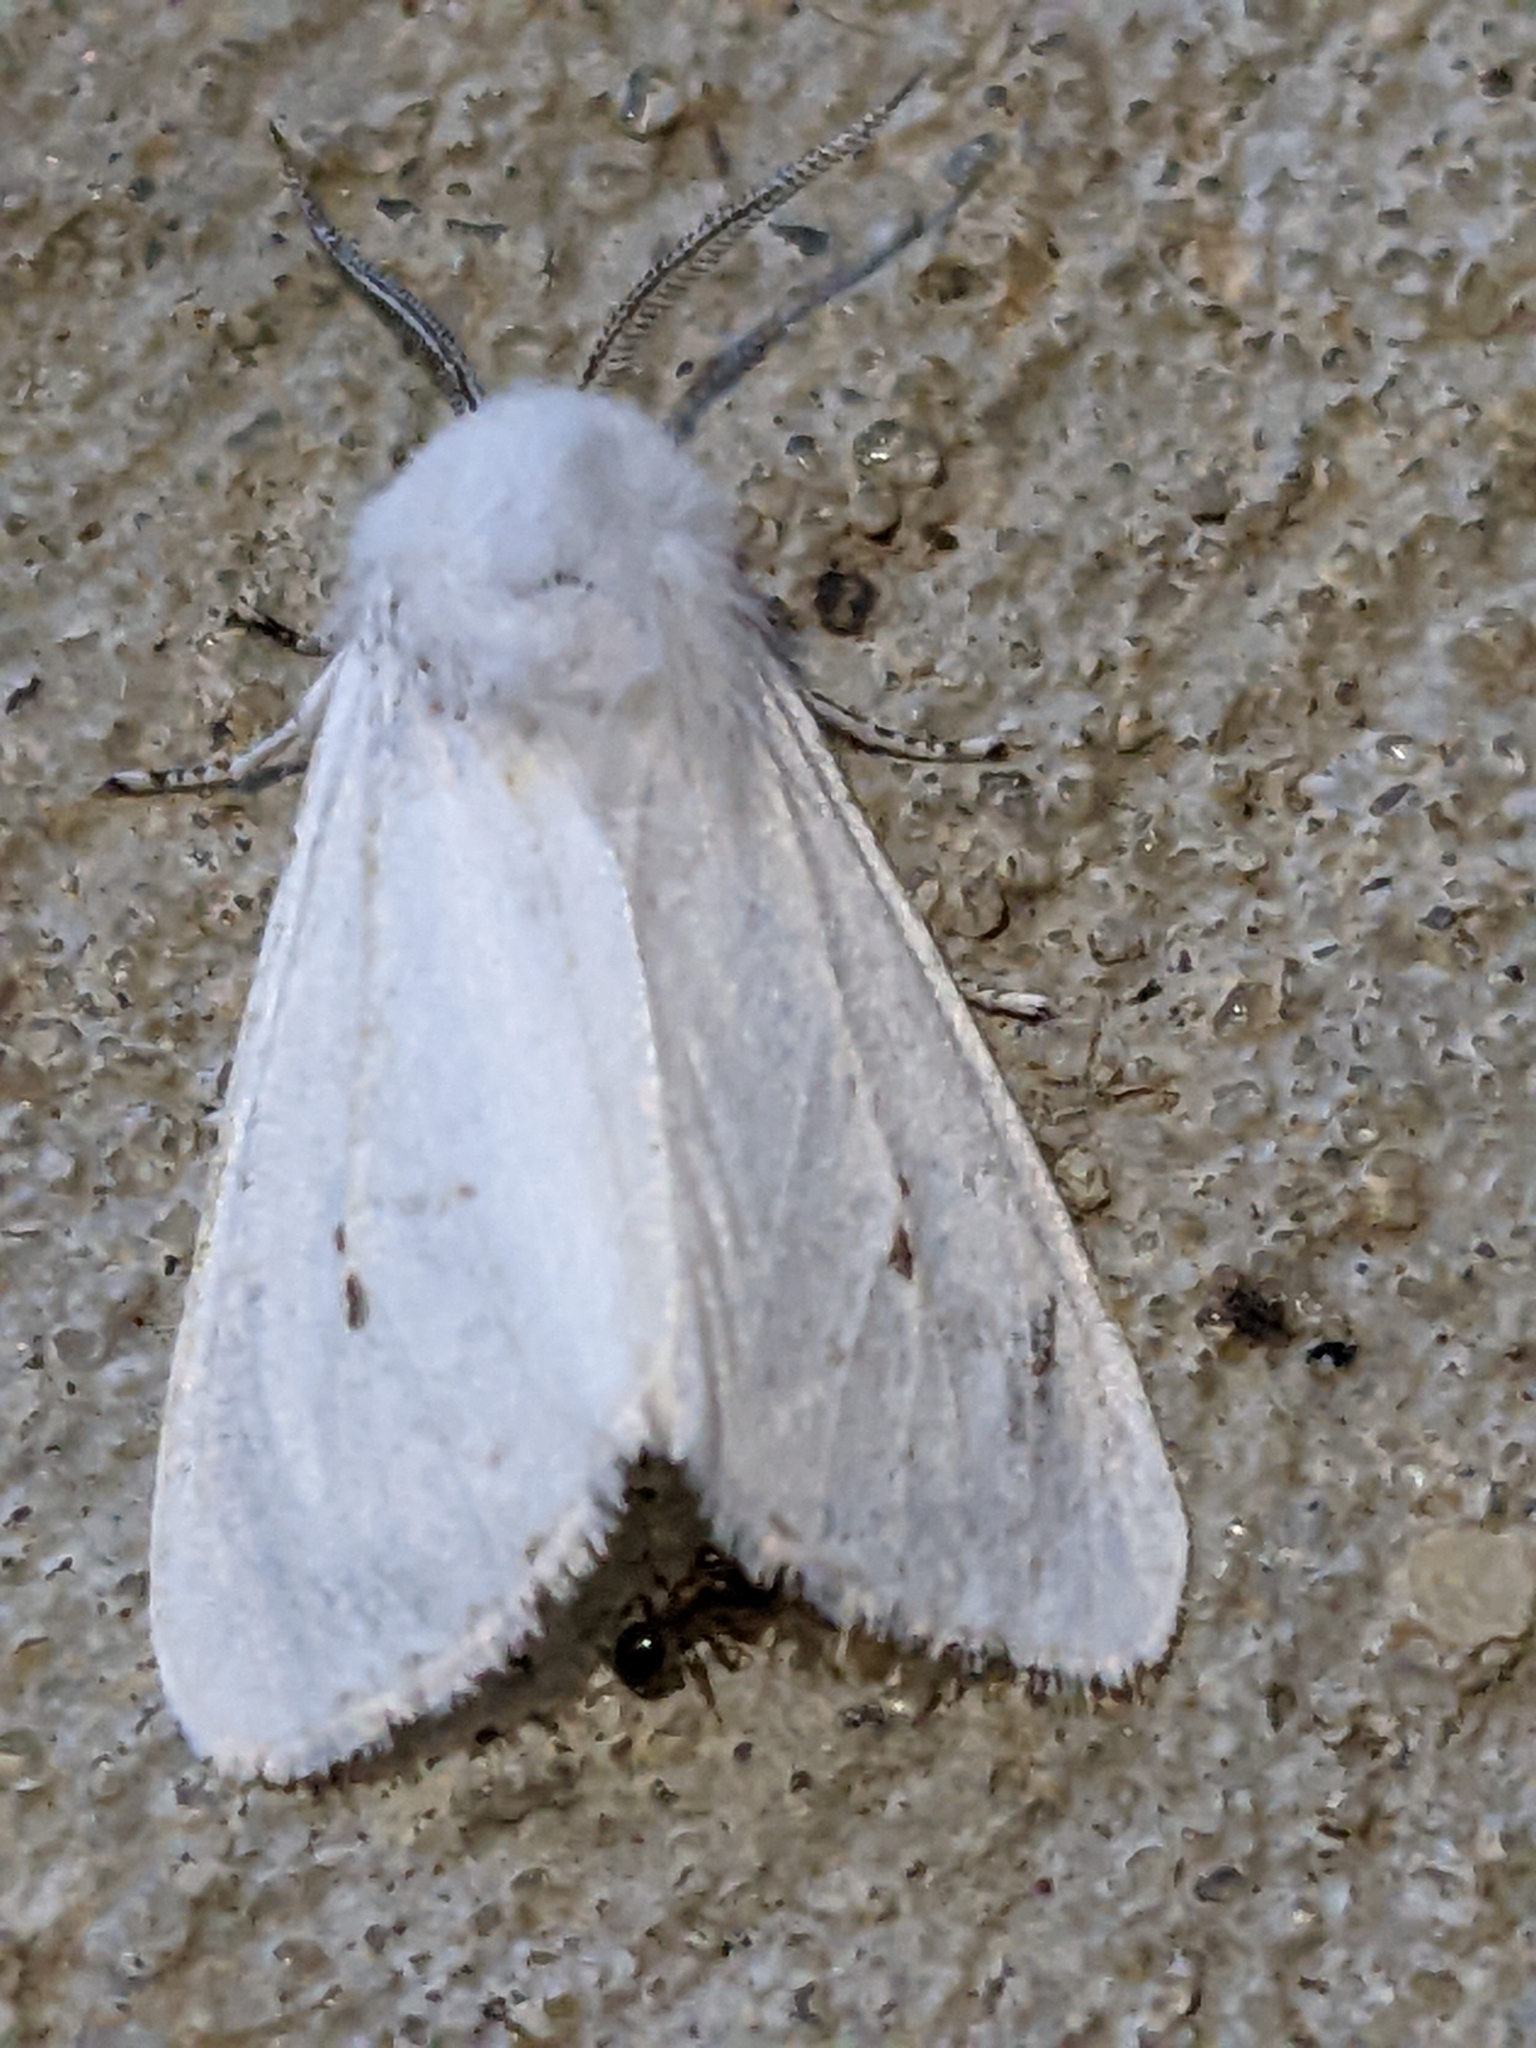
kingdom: Animalia
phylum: Arthropoda
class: Insecta
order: Lepidoptera
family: Erebidae
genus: Hyphantria
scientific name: Hyphantria cunea
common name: American white moth
